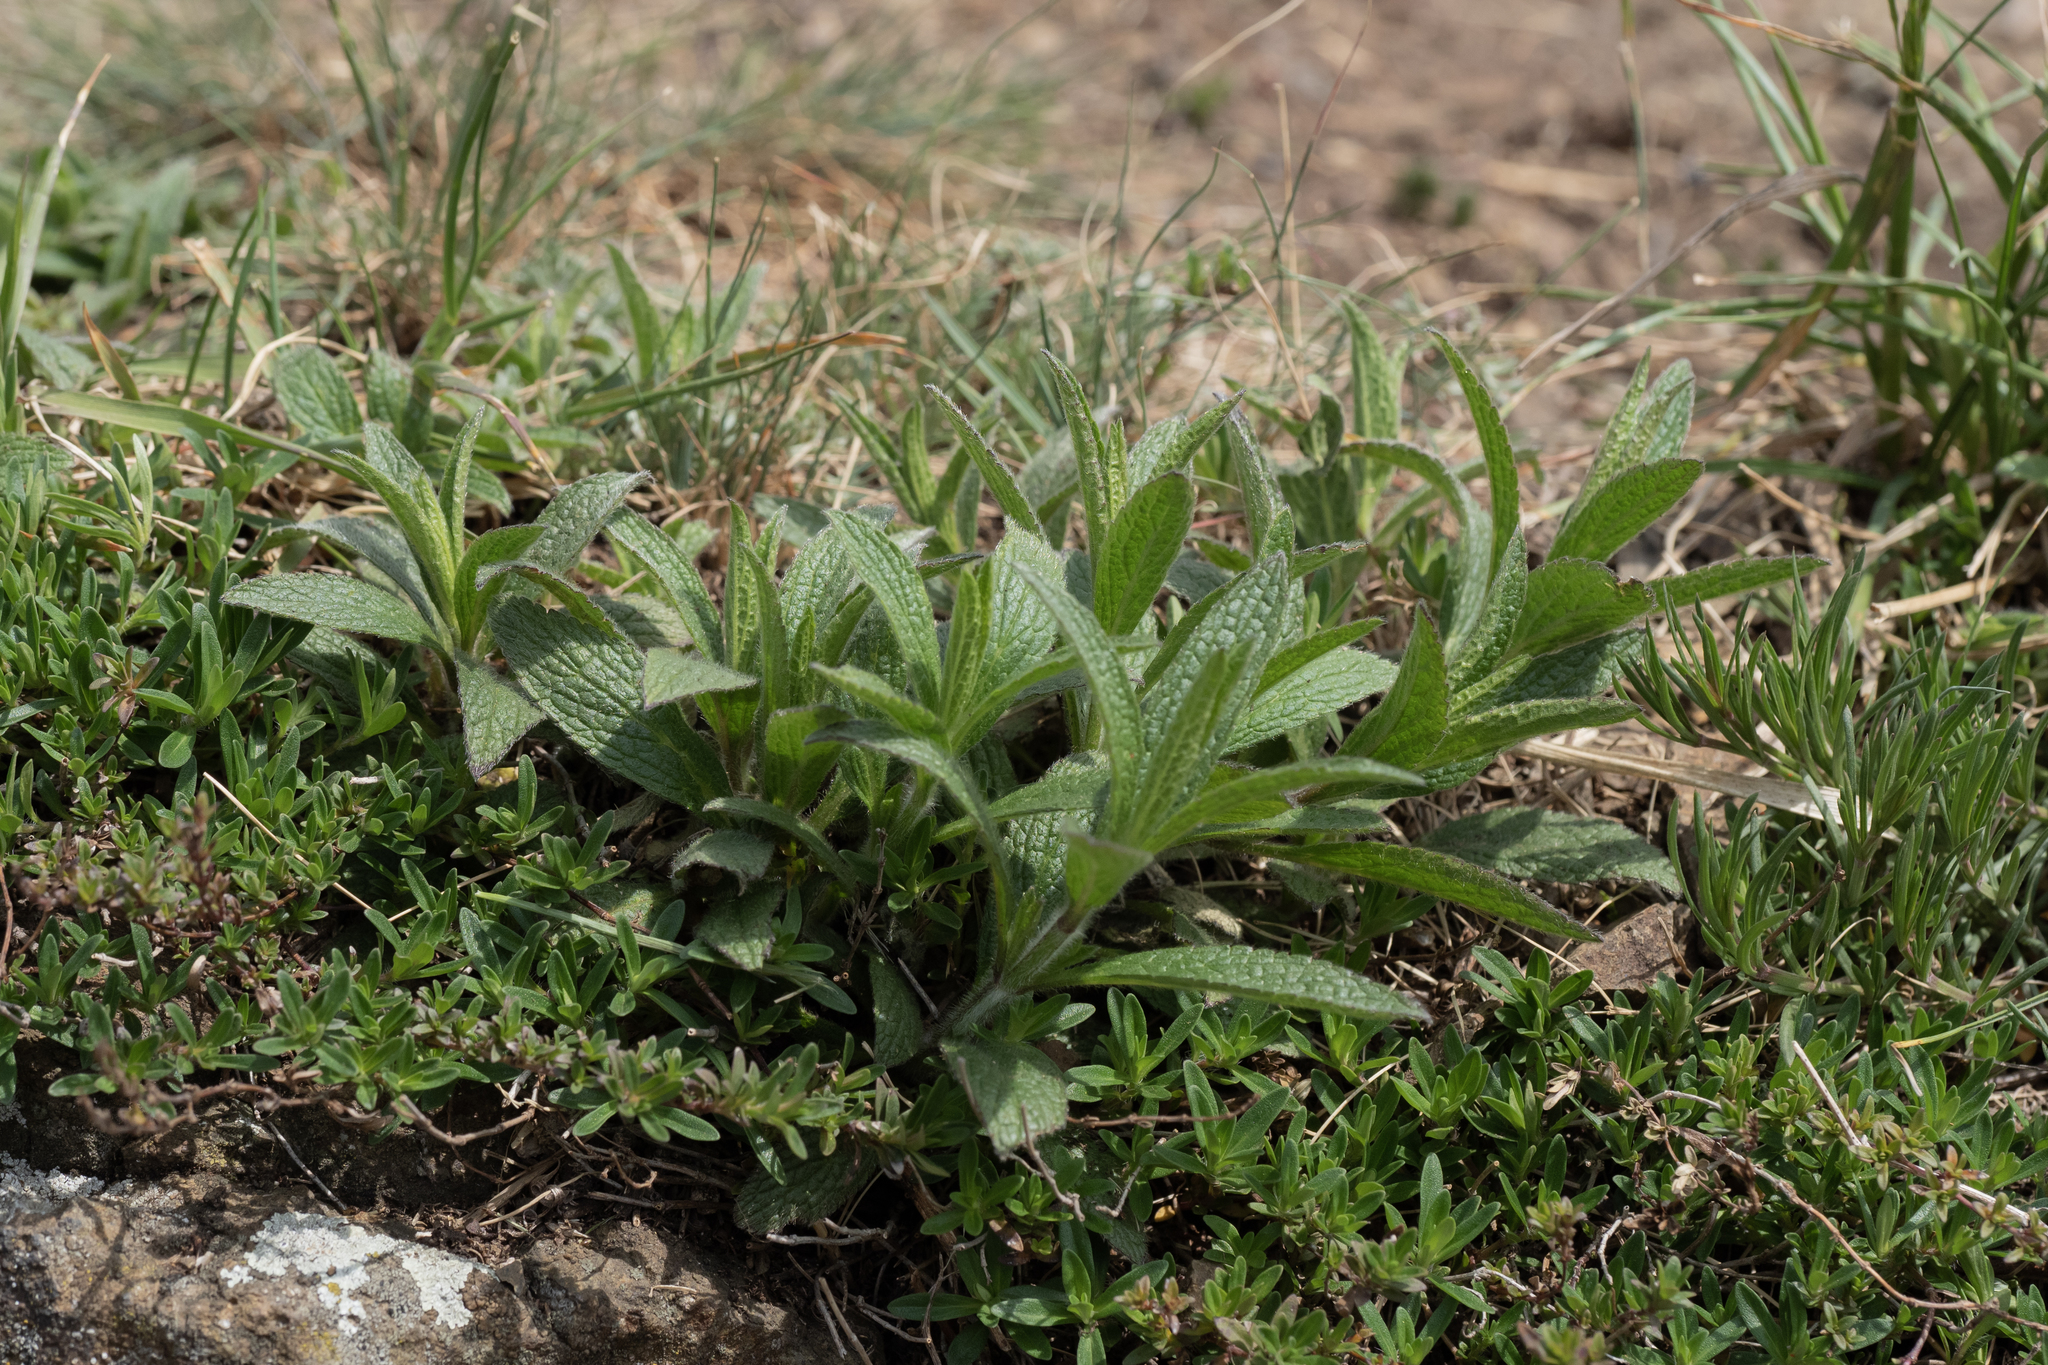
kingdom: Plantae
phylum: Tracheophyta
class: Magnoliopsida
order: Lamiales
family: Lamiaceae
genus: Stachys
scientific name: Stachys recta
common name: Perennial yellow-woundwort
